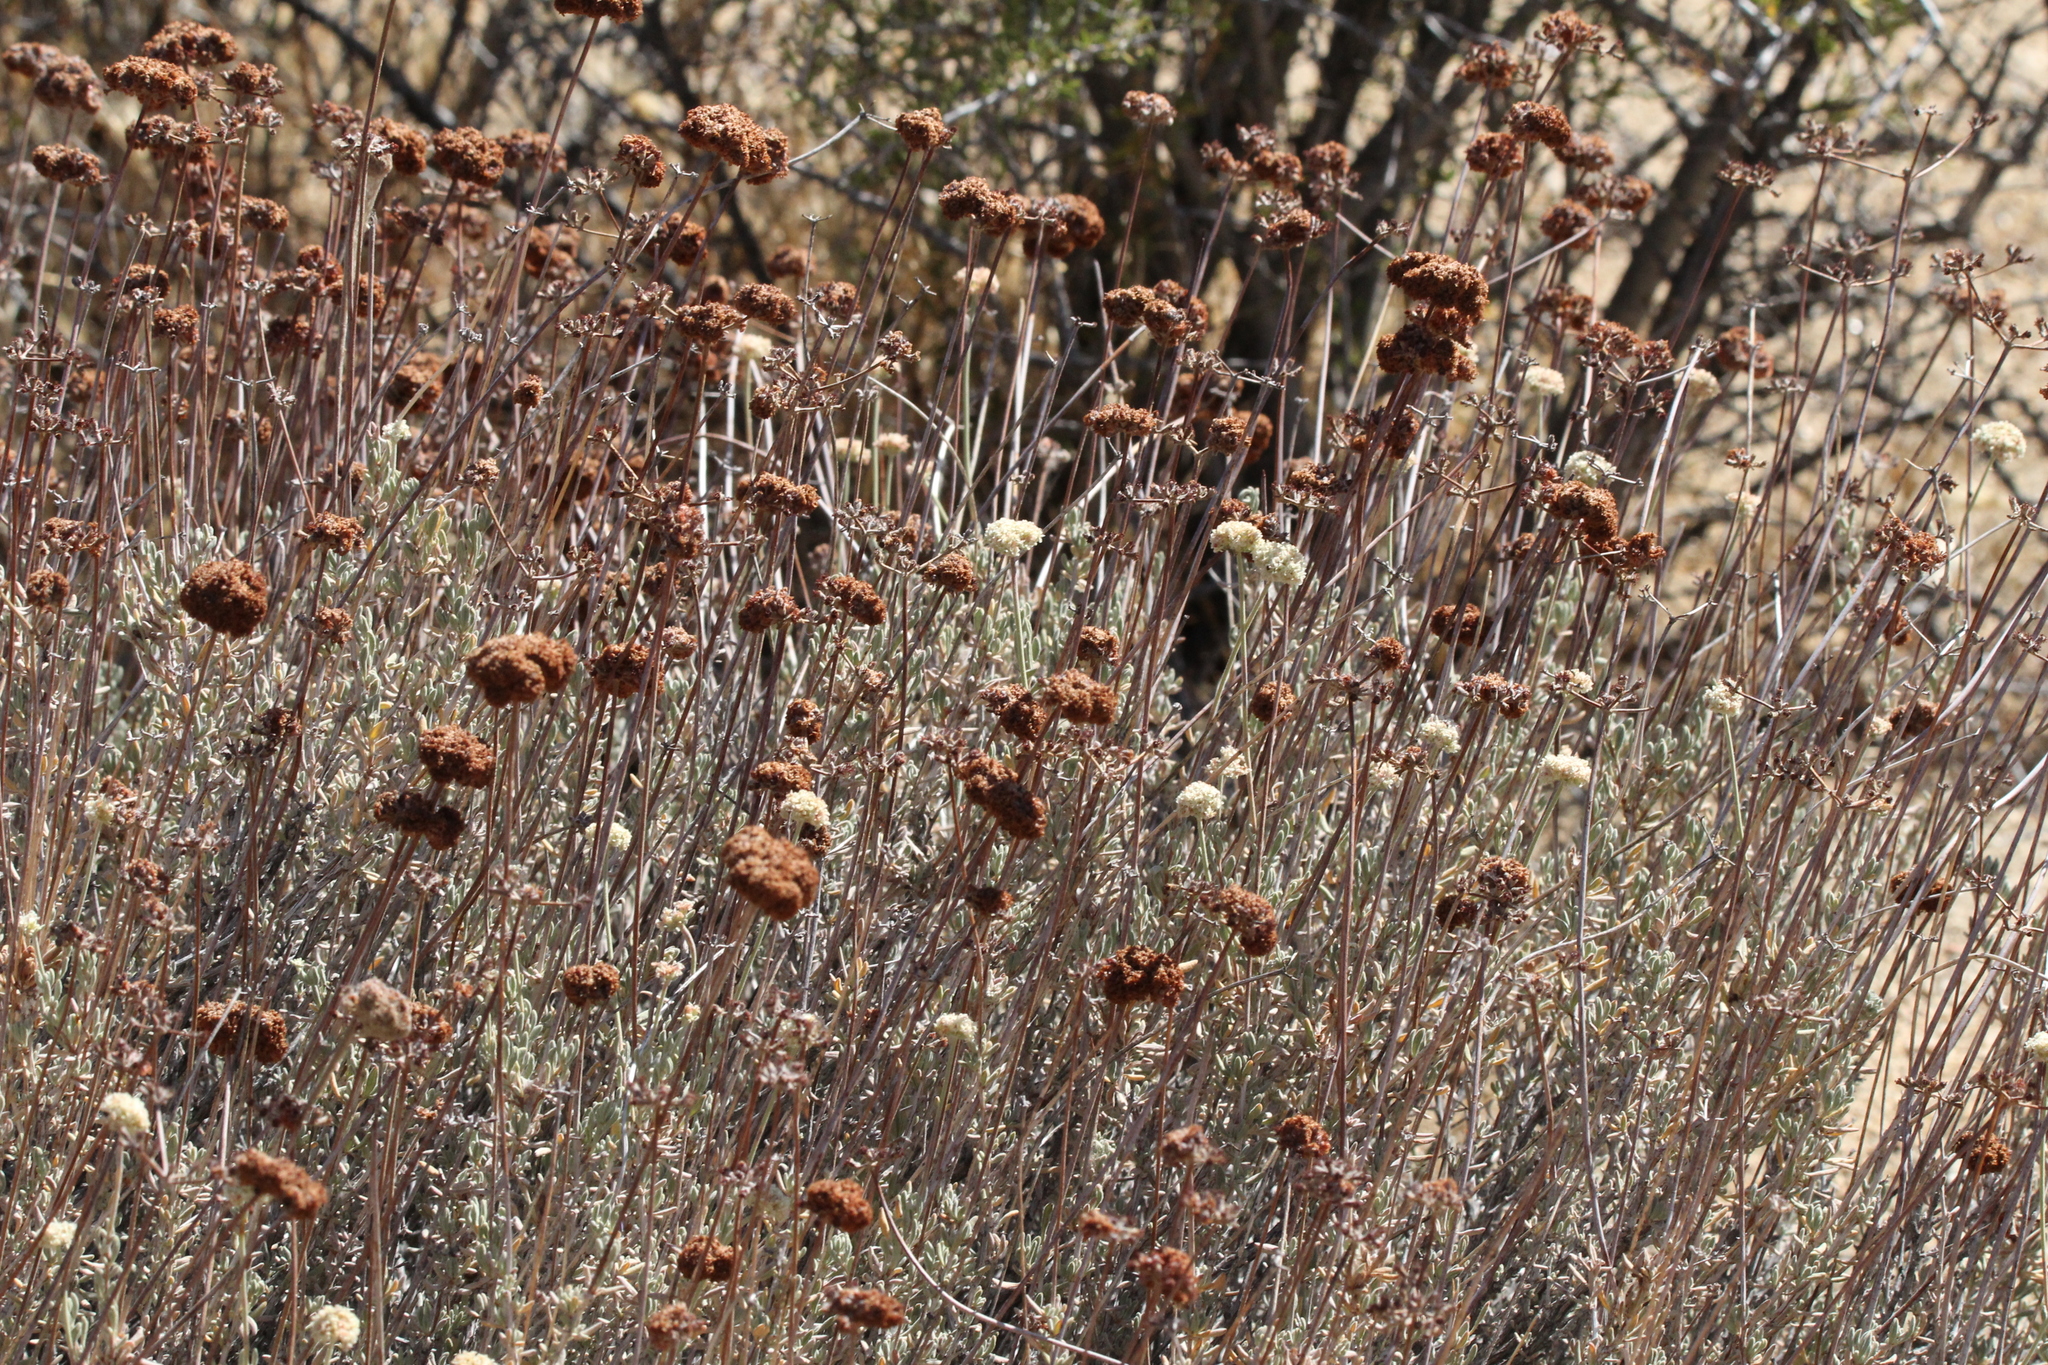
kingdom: Plantae
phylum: Tracheophyta
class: Magnoliopsida
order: Caryophyllales
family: Polygonaceae
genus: Eriogonum
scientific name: Eriogonum fasciculatum
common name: California wild buckwheat
